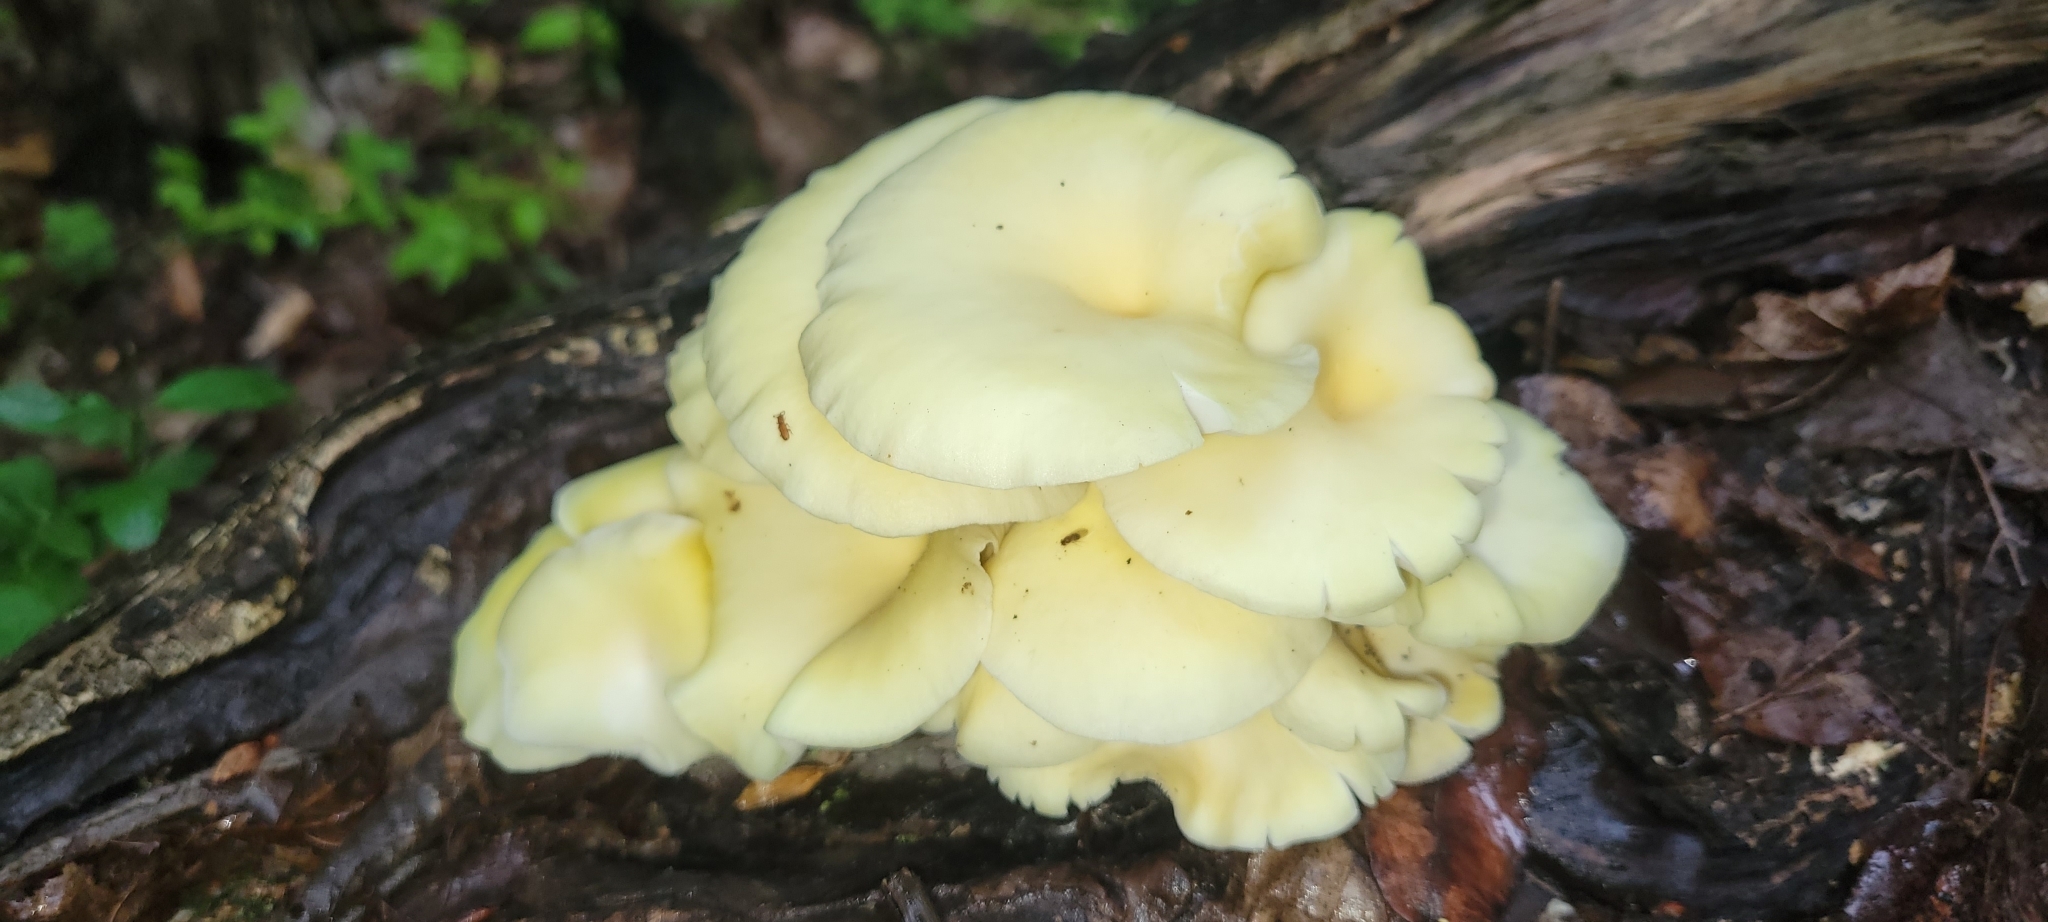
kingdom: Fungi
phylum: Basidiomycota
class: Agaricomycetes
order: Agaricales
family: Pleurotaceae
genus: Pleurotus
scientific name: Pleurotus citrinopileatus
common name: Golden oyster mushroom
